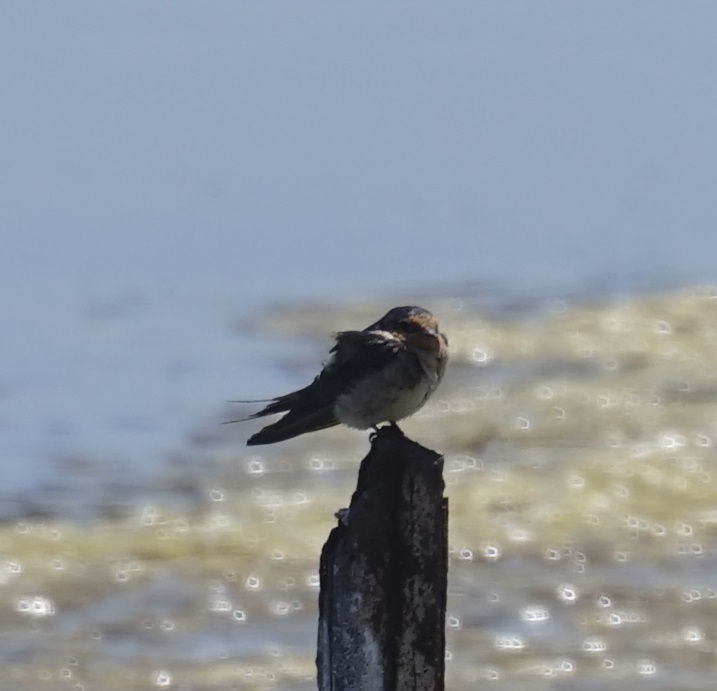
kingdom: Animalia
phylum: Chordata
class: Aves
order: Passeriformes
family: Hirundinidae
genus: Hirundo
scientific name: Hirundo neoxena
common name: Welcome swallow
